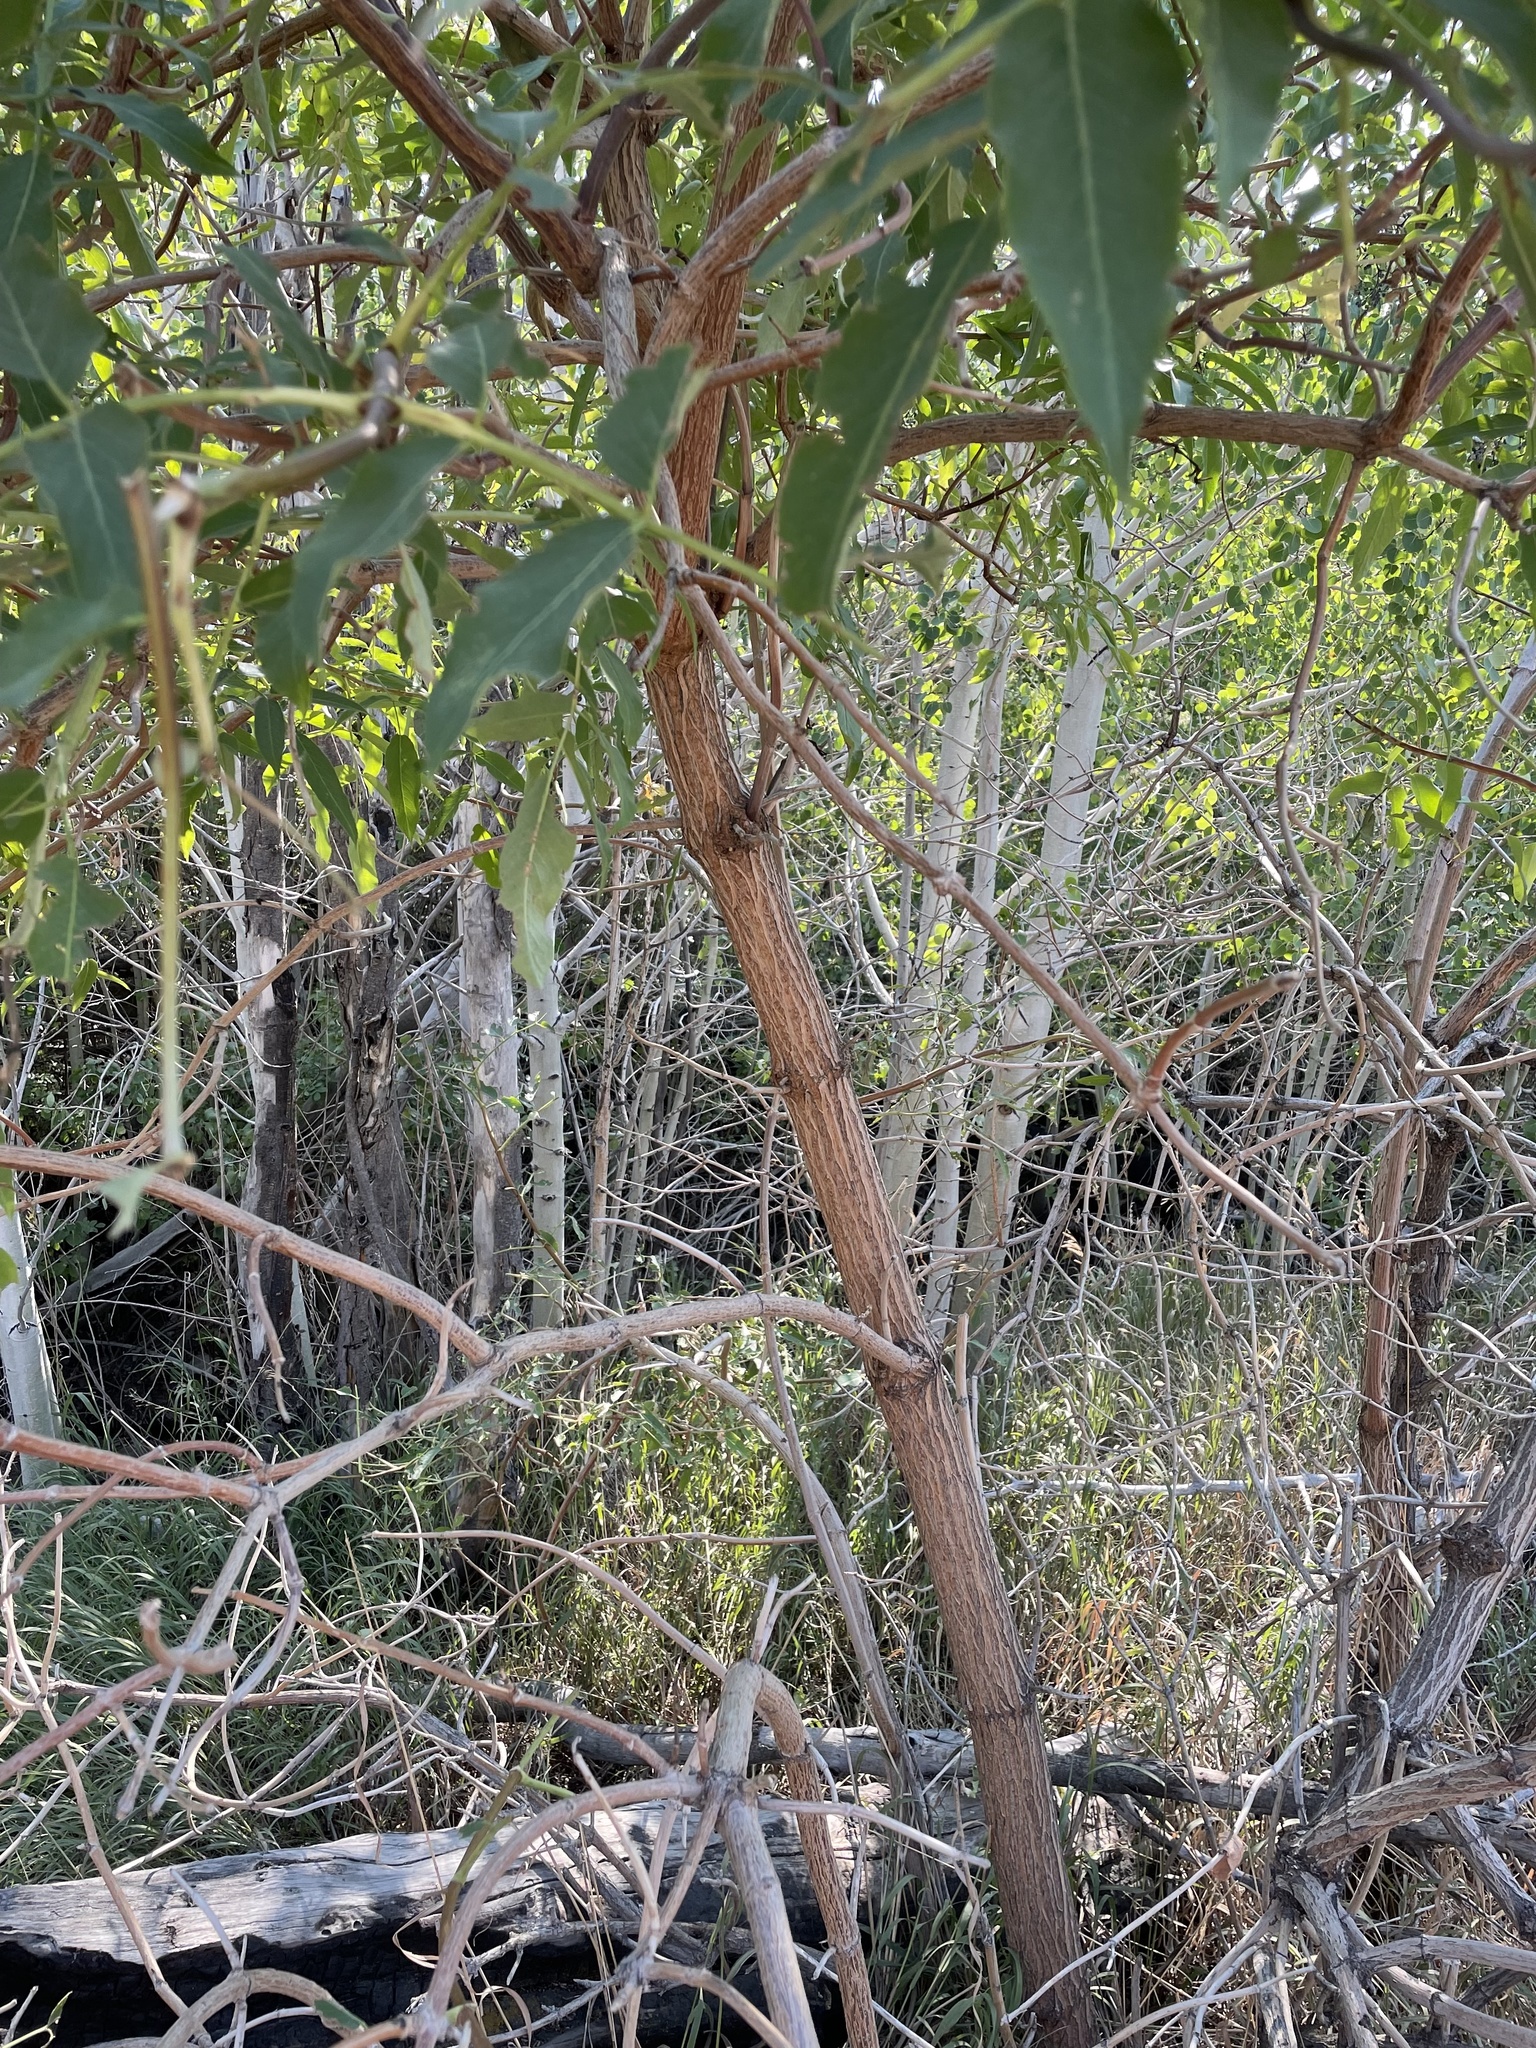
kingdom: Plantae
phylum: Tracheophyta
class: Magnoliopsida
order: Dipsacales
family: Viburnaceae
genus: Sambucus
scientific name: Sambucus cerulea
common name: Blue elder
